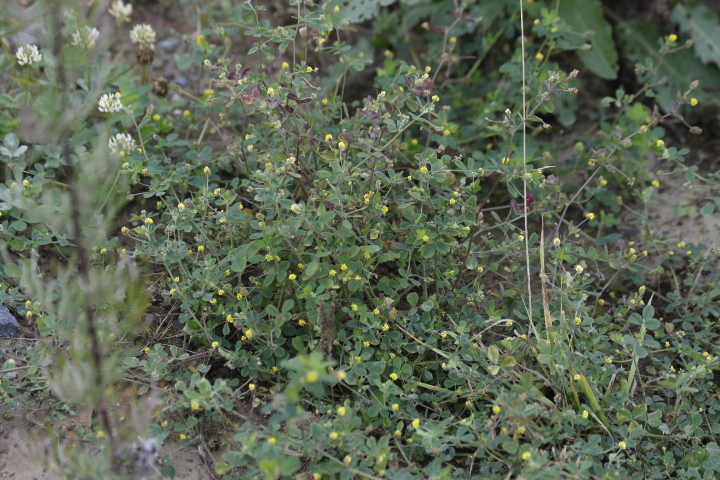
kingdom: Plantae
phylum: Tracheophyta
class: Magnoliopsida
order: Fabales
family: Fabaceae
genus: Medicago
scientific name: Medicago lupulina
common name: Black medick
